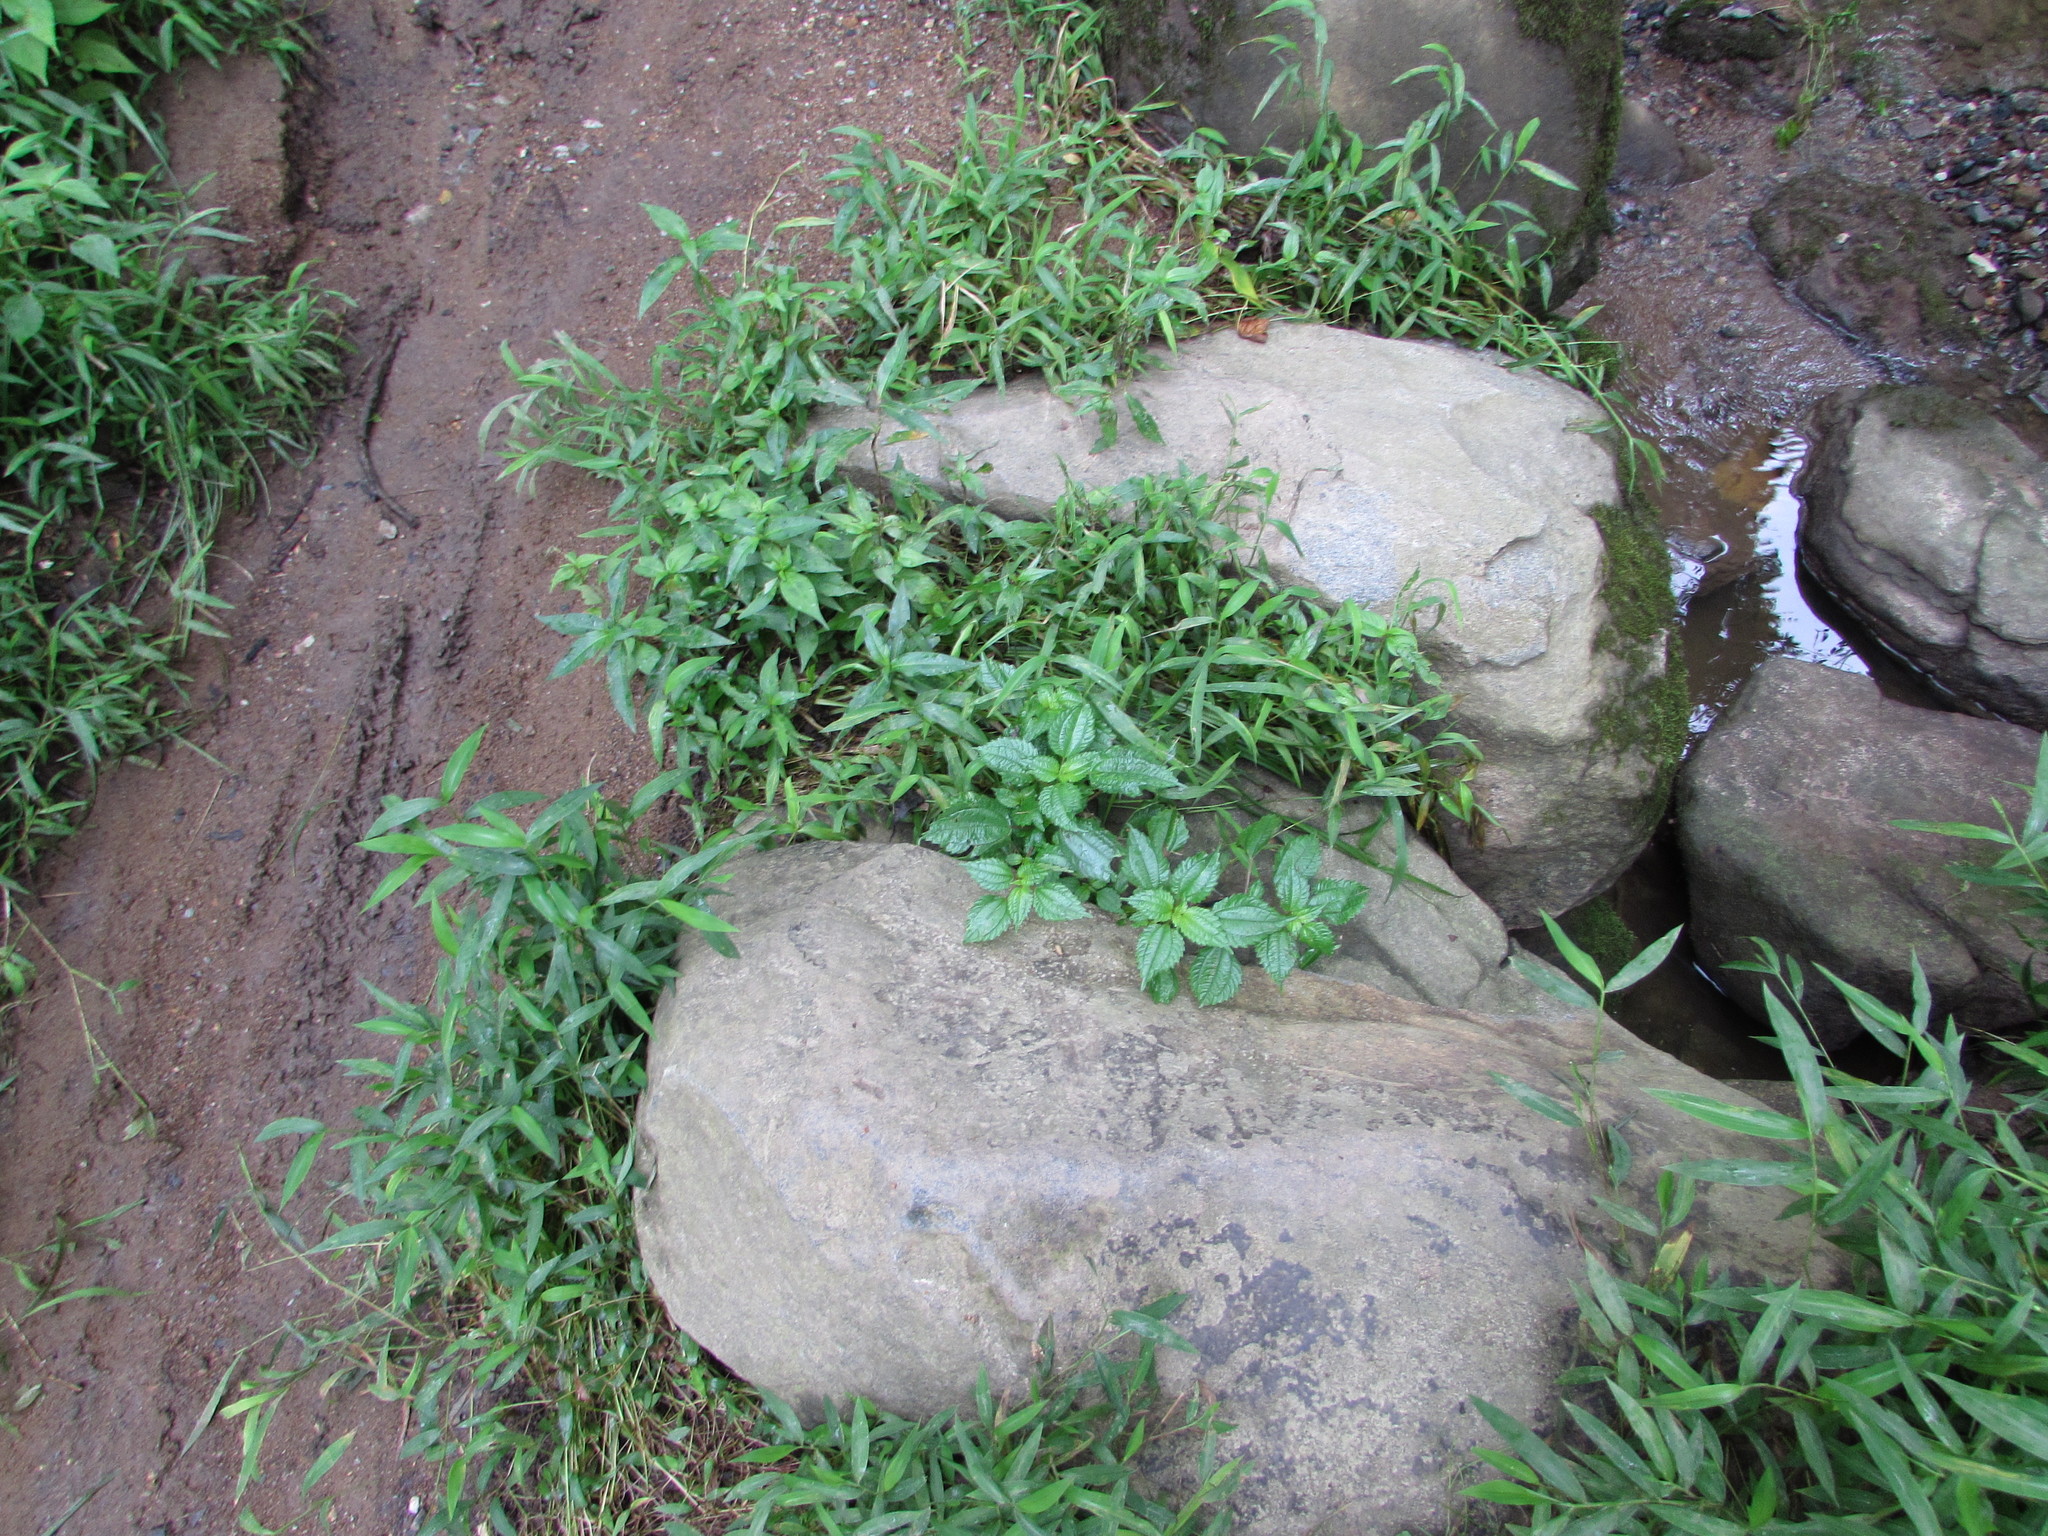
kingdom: Plantae
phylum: Tracheophyta
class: Magnoliopsida
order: Rosales
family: Urticaceae
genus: Pilea
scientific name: Pilea pumila
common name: Clearweed
